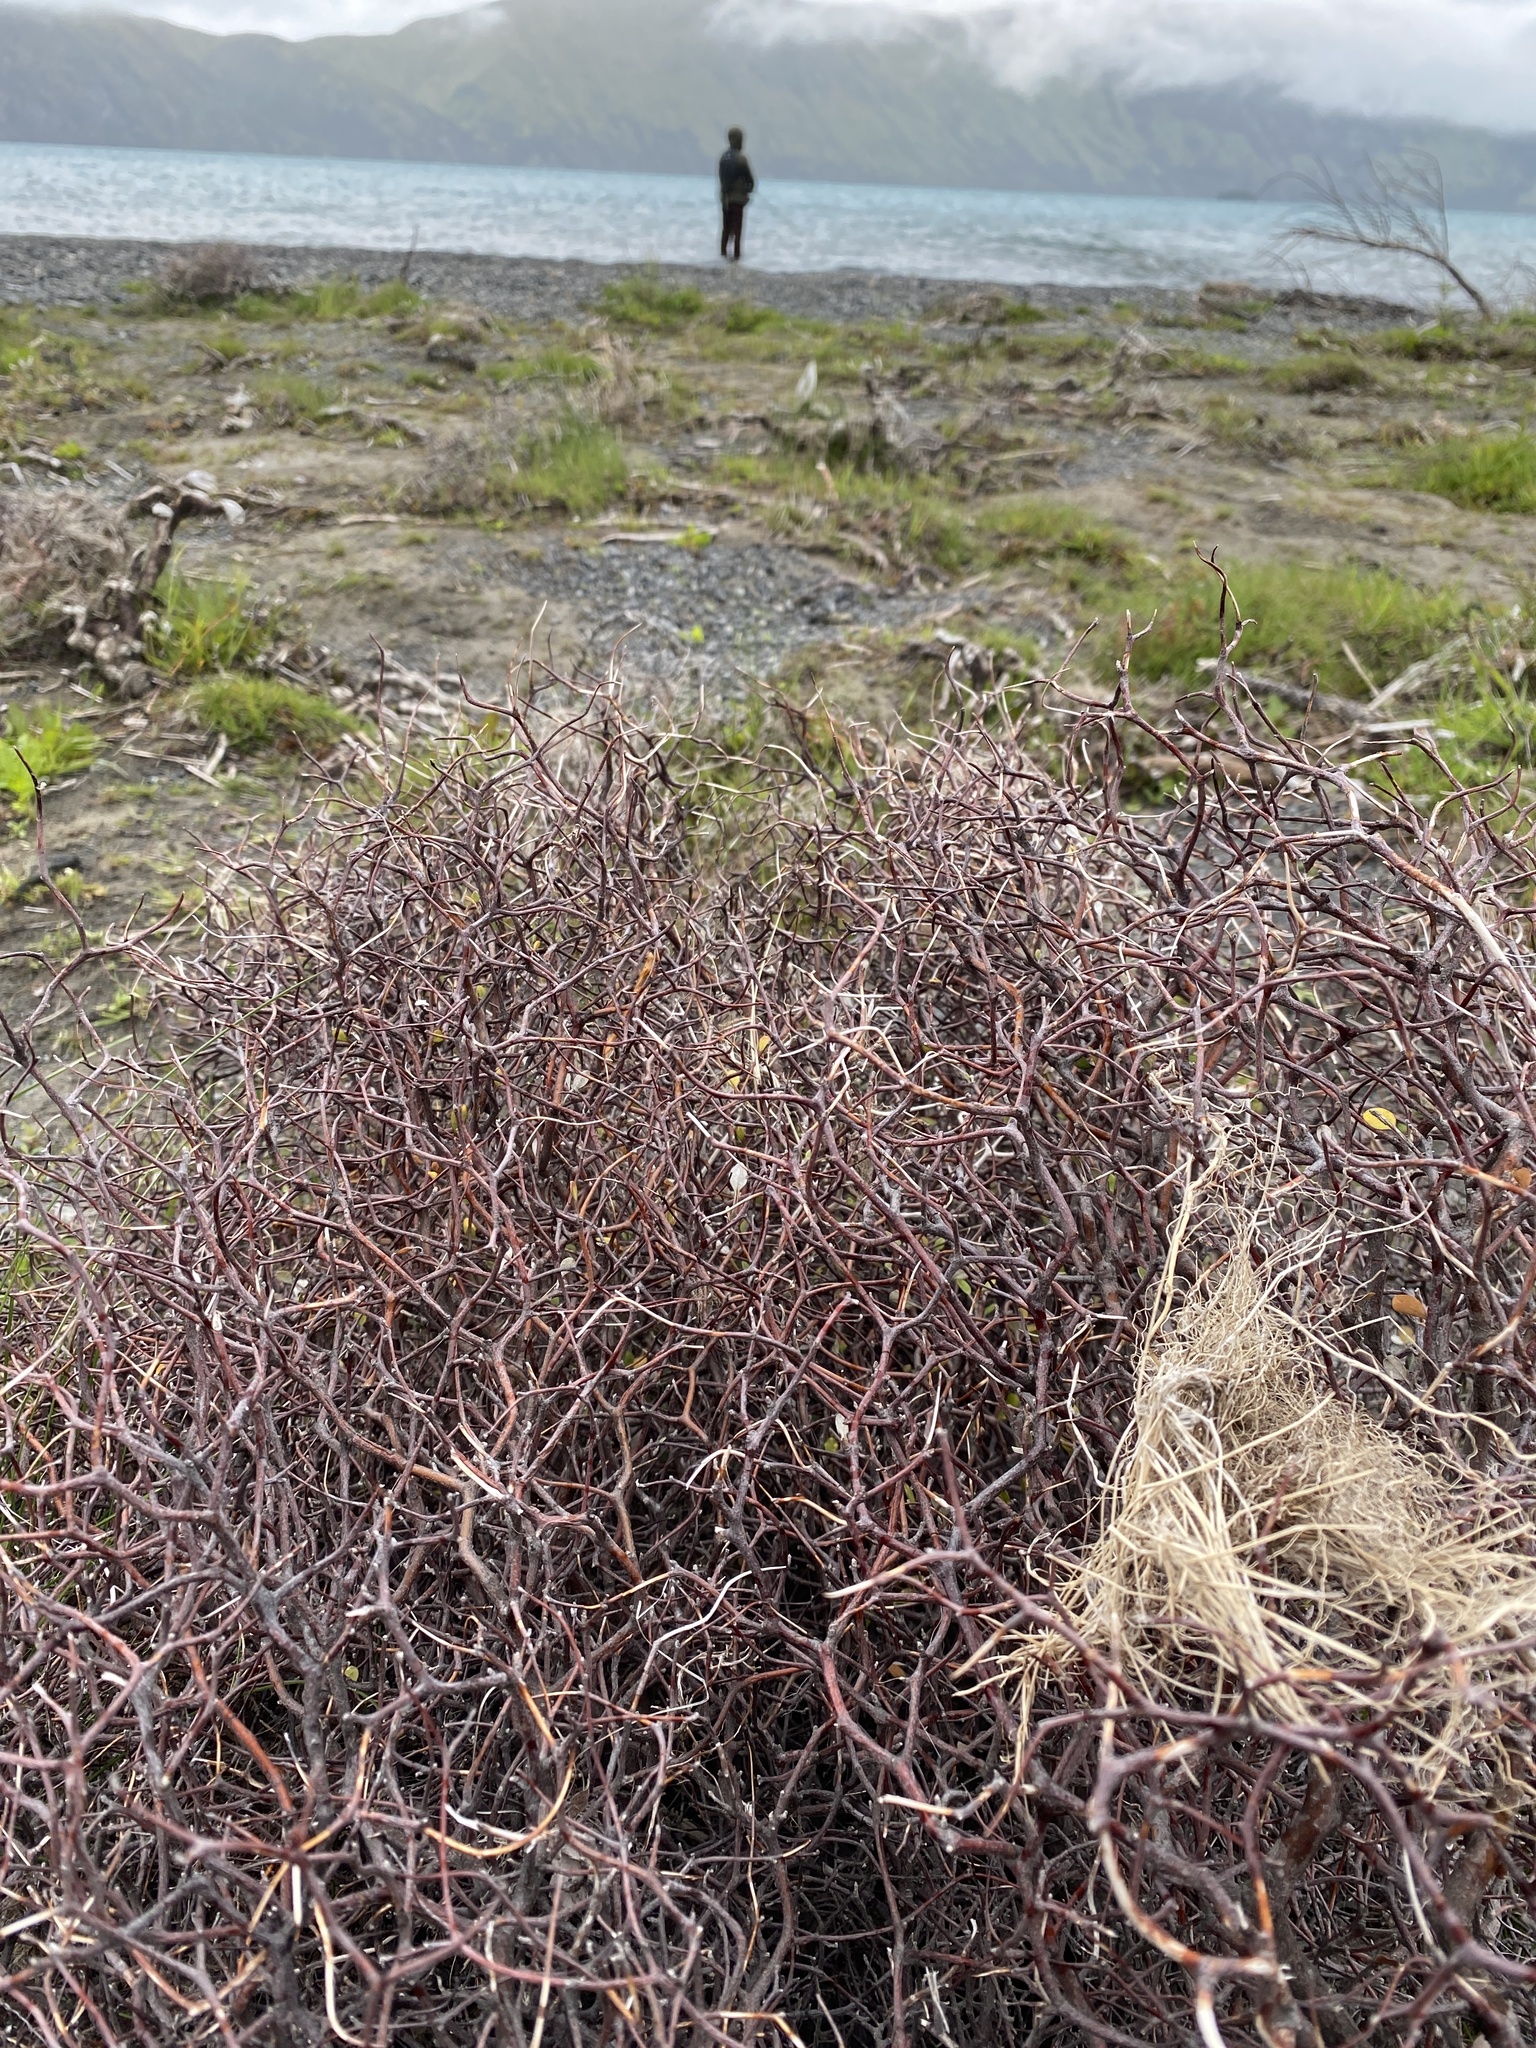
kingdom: Plantae
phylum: Tracheophyta
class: Magnoliopsida
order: Asterales
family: Argophyllaceae
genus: Corokia
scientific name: Corokia cotoneaster
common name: Wire nettingbush
